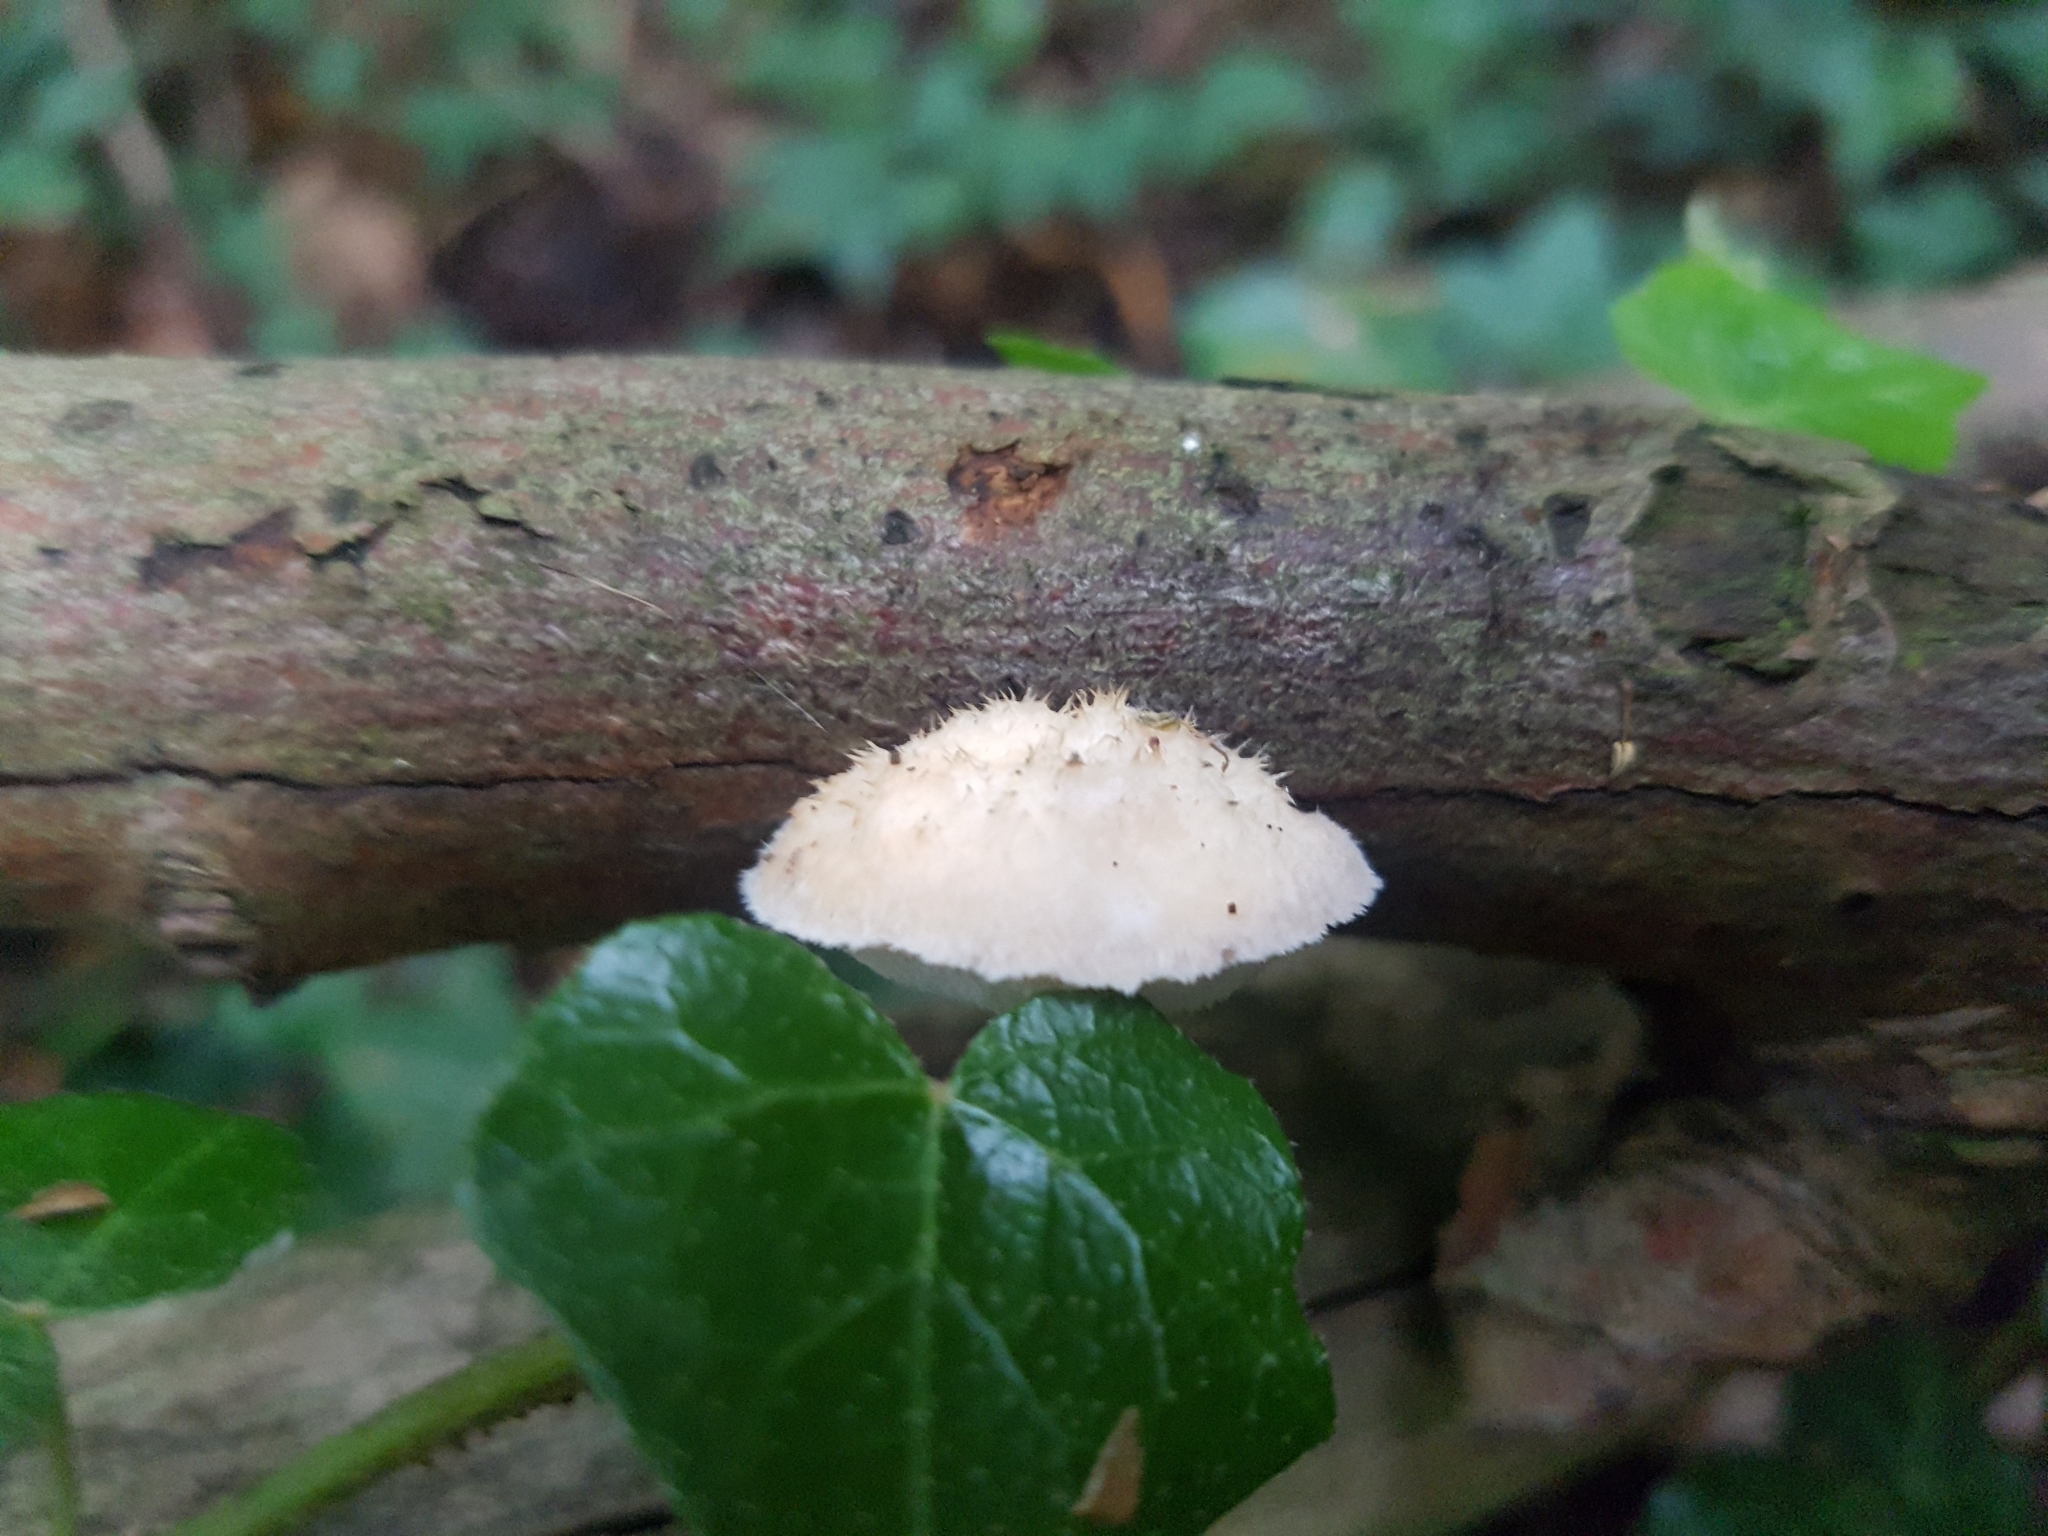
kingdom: Fungi
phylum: Basidiomycota
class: Agaricomycetes
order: Polyporales
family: Dacryobolaceae
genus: Postia
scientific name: Postia ptychogaster
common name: Powderpuff bracket
